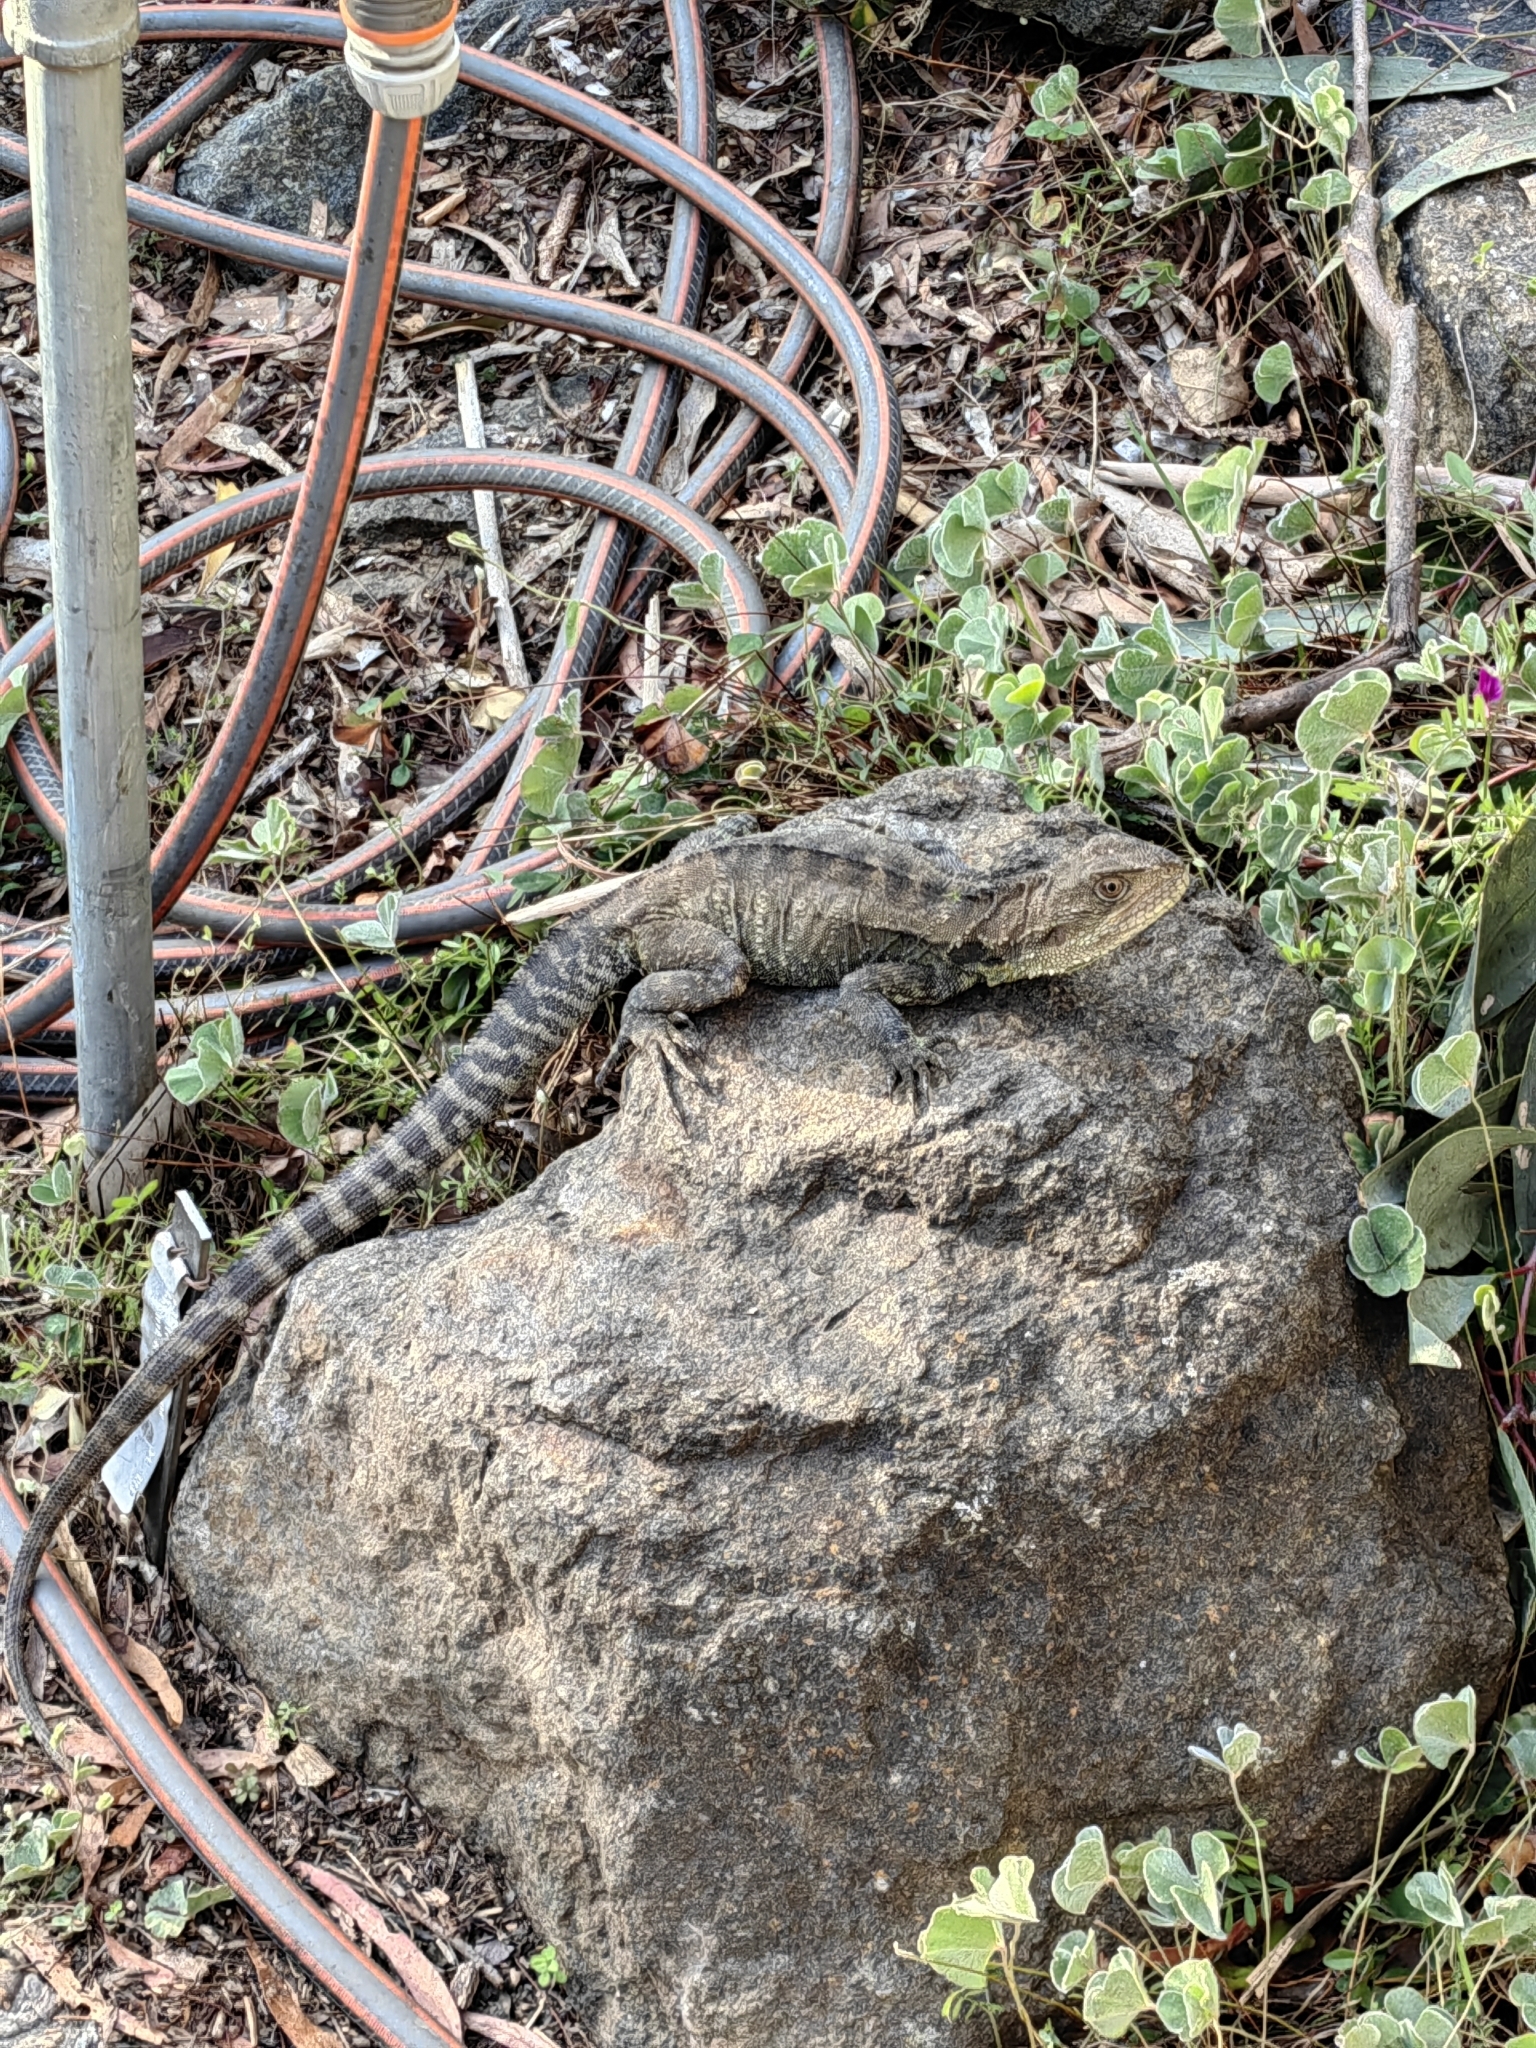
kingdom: Animalia
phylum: Chordata
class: Squamata
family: Agamidae
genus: Intellagama
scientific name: Intellagama lesueurii
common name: Eastern water dragon
